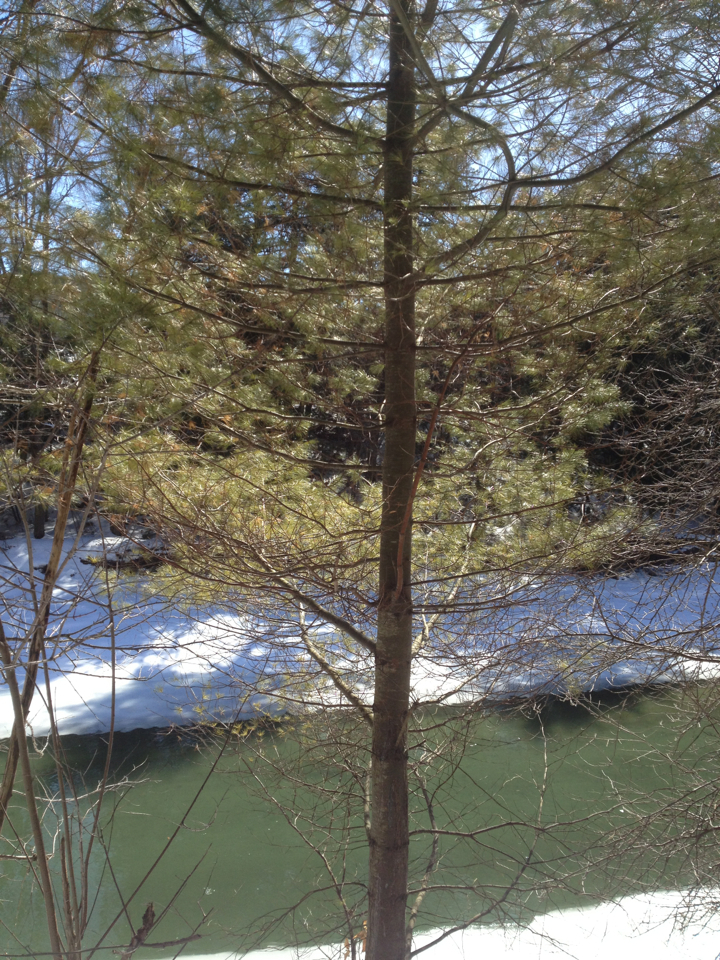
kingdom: Plantae
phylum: Tracheophyta
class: Pinopsida
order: Pinales
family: Pinaceae
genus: Pinus
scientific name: Pinus strobus
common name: Weymouth pine
